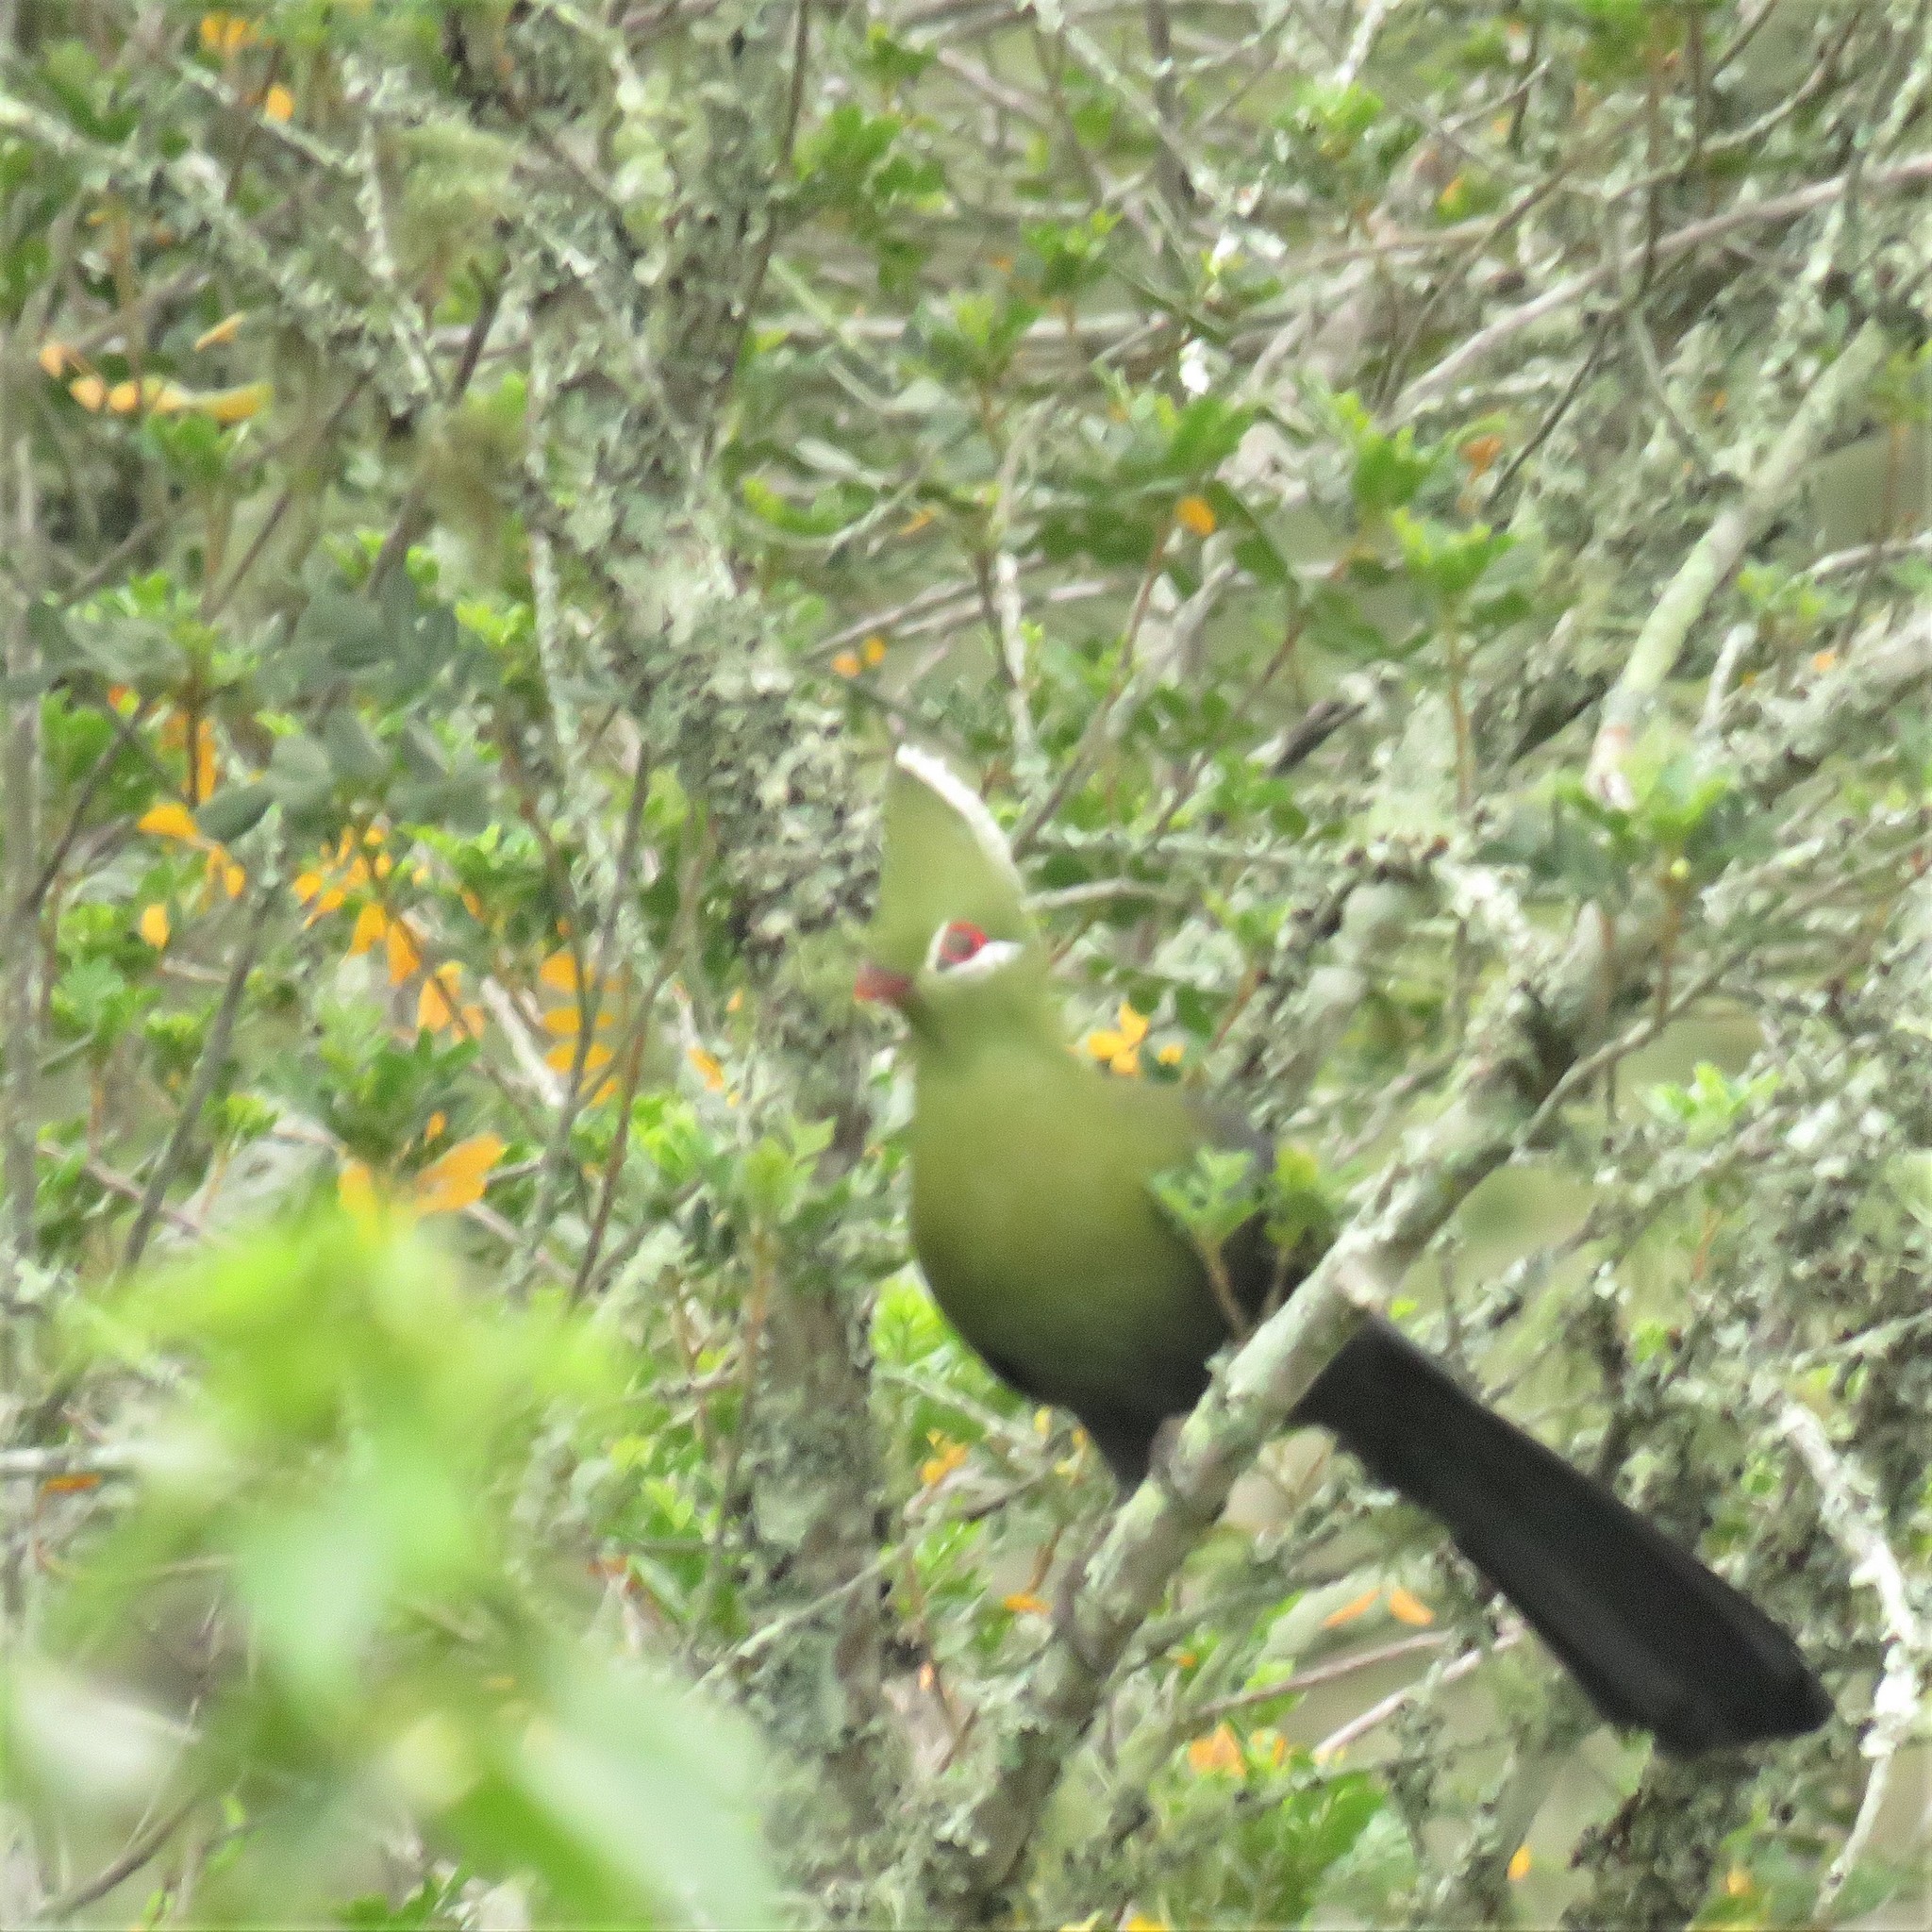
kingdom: Animalia
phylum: Chordata
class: Aves
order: Musophagiformes
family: Musophagidae
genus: Tauraco
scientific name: Tauraco corythaix
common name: Knysna turaco
